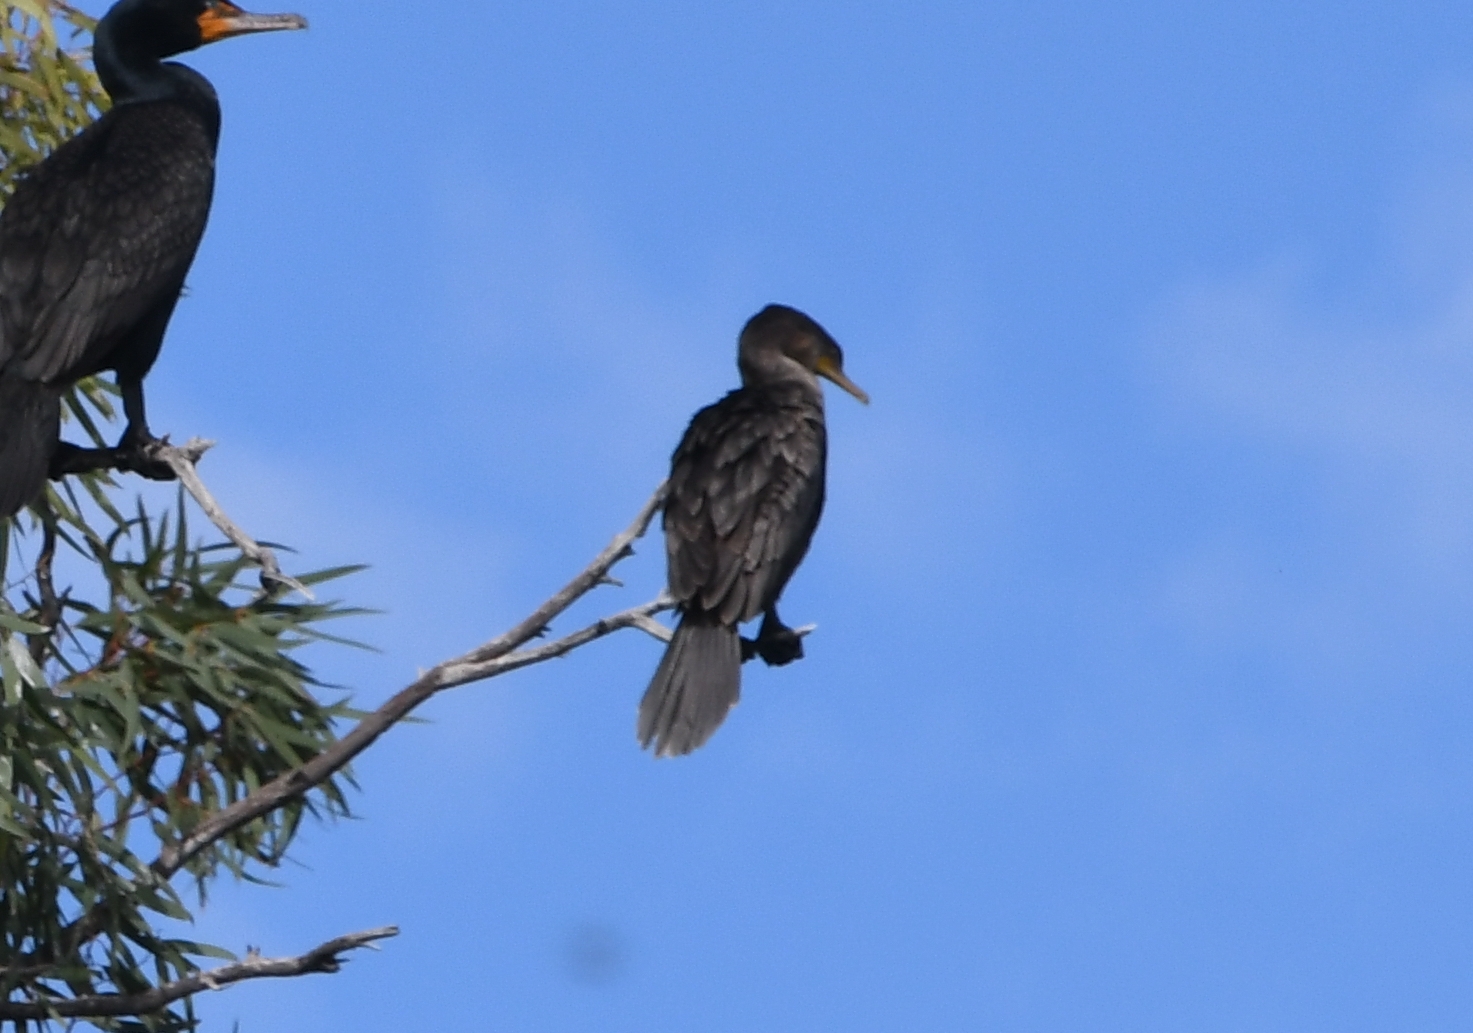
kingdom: Animalia
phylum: Chordata
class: Aves
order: Suliformes
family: Phalacrocoracidae
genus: Phalacrocorax
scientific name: Phalacrocorax brasilianus
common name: Neotropic cormorant
